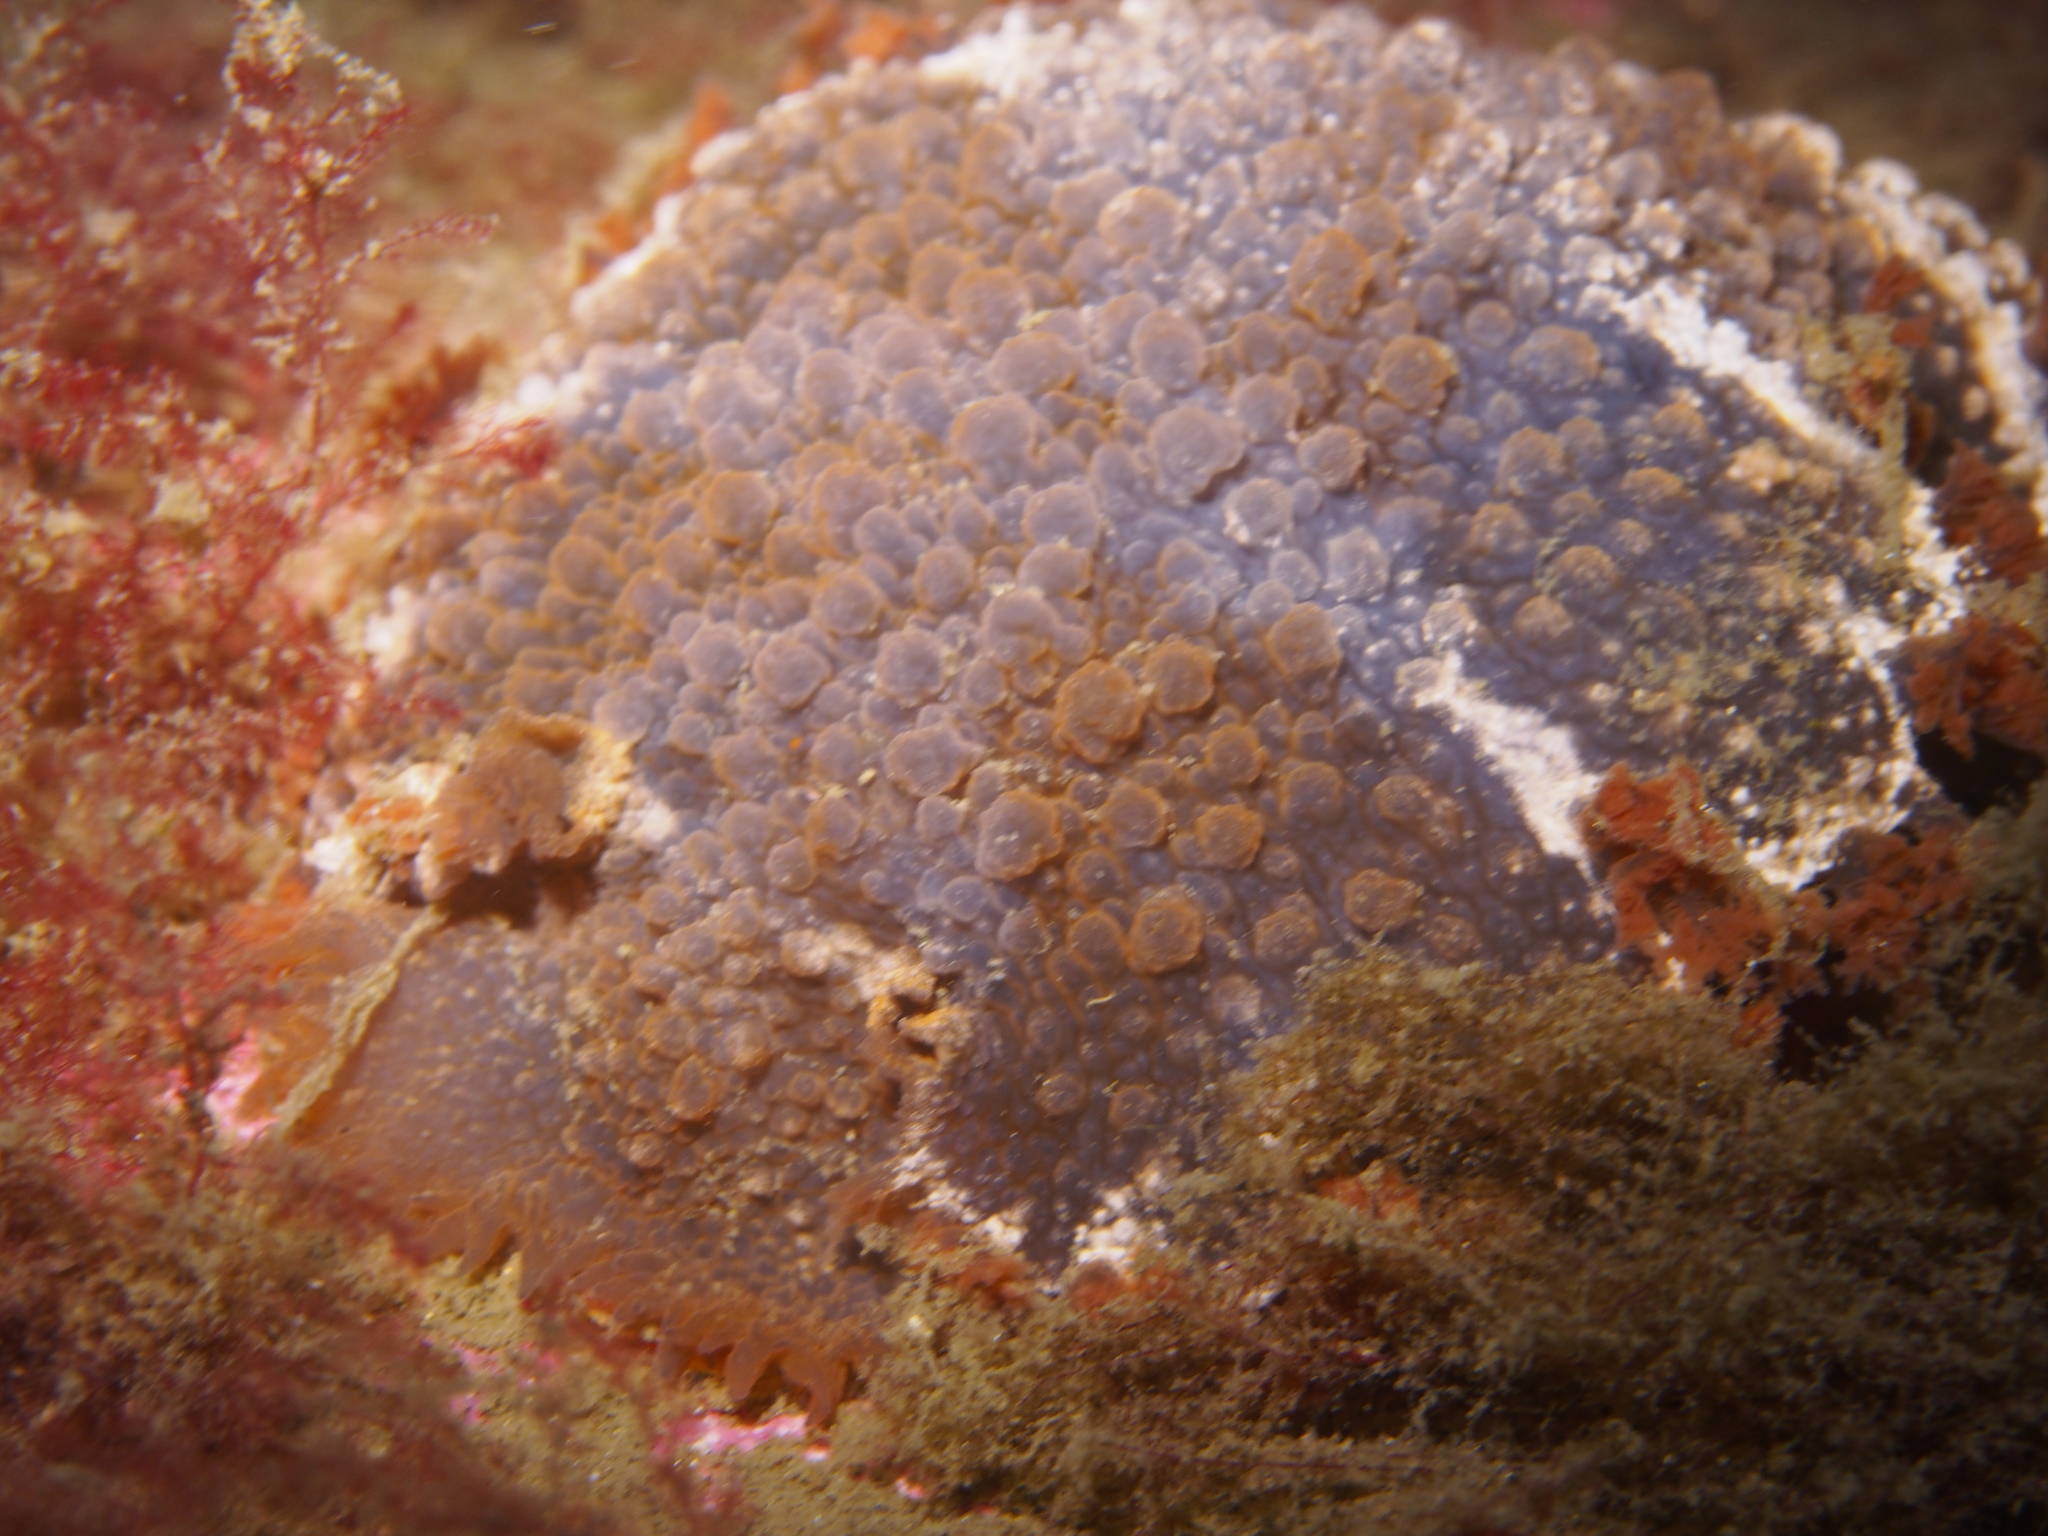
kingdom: Animalia
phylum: Mollusca
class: Gastropoda
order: Nudibranchia
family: Tritoniidae
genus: Tritonia
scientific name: Tritonia hombergii
